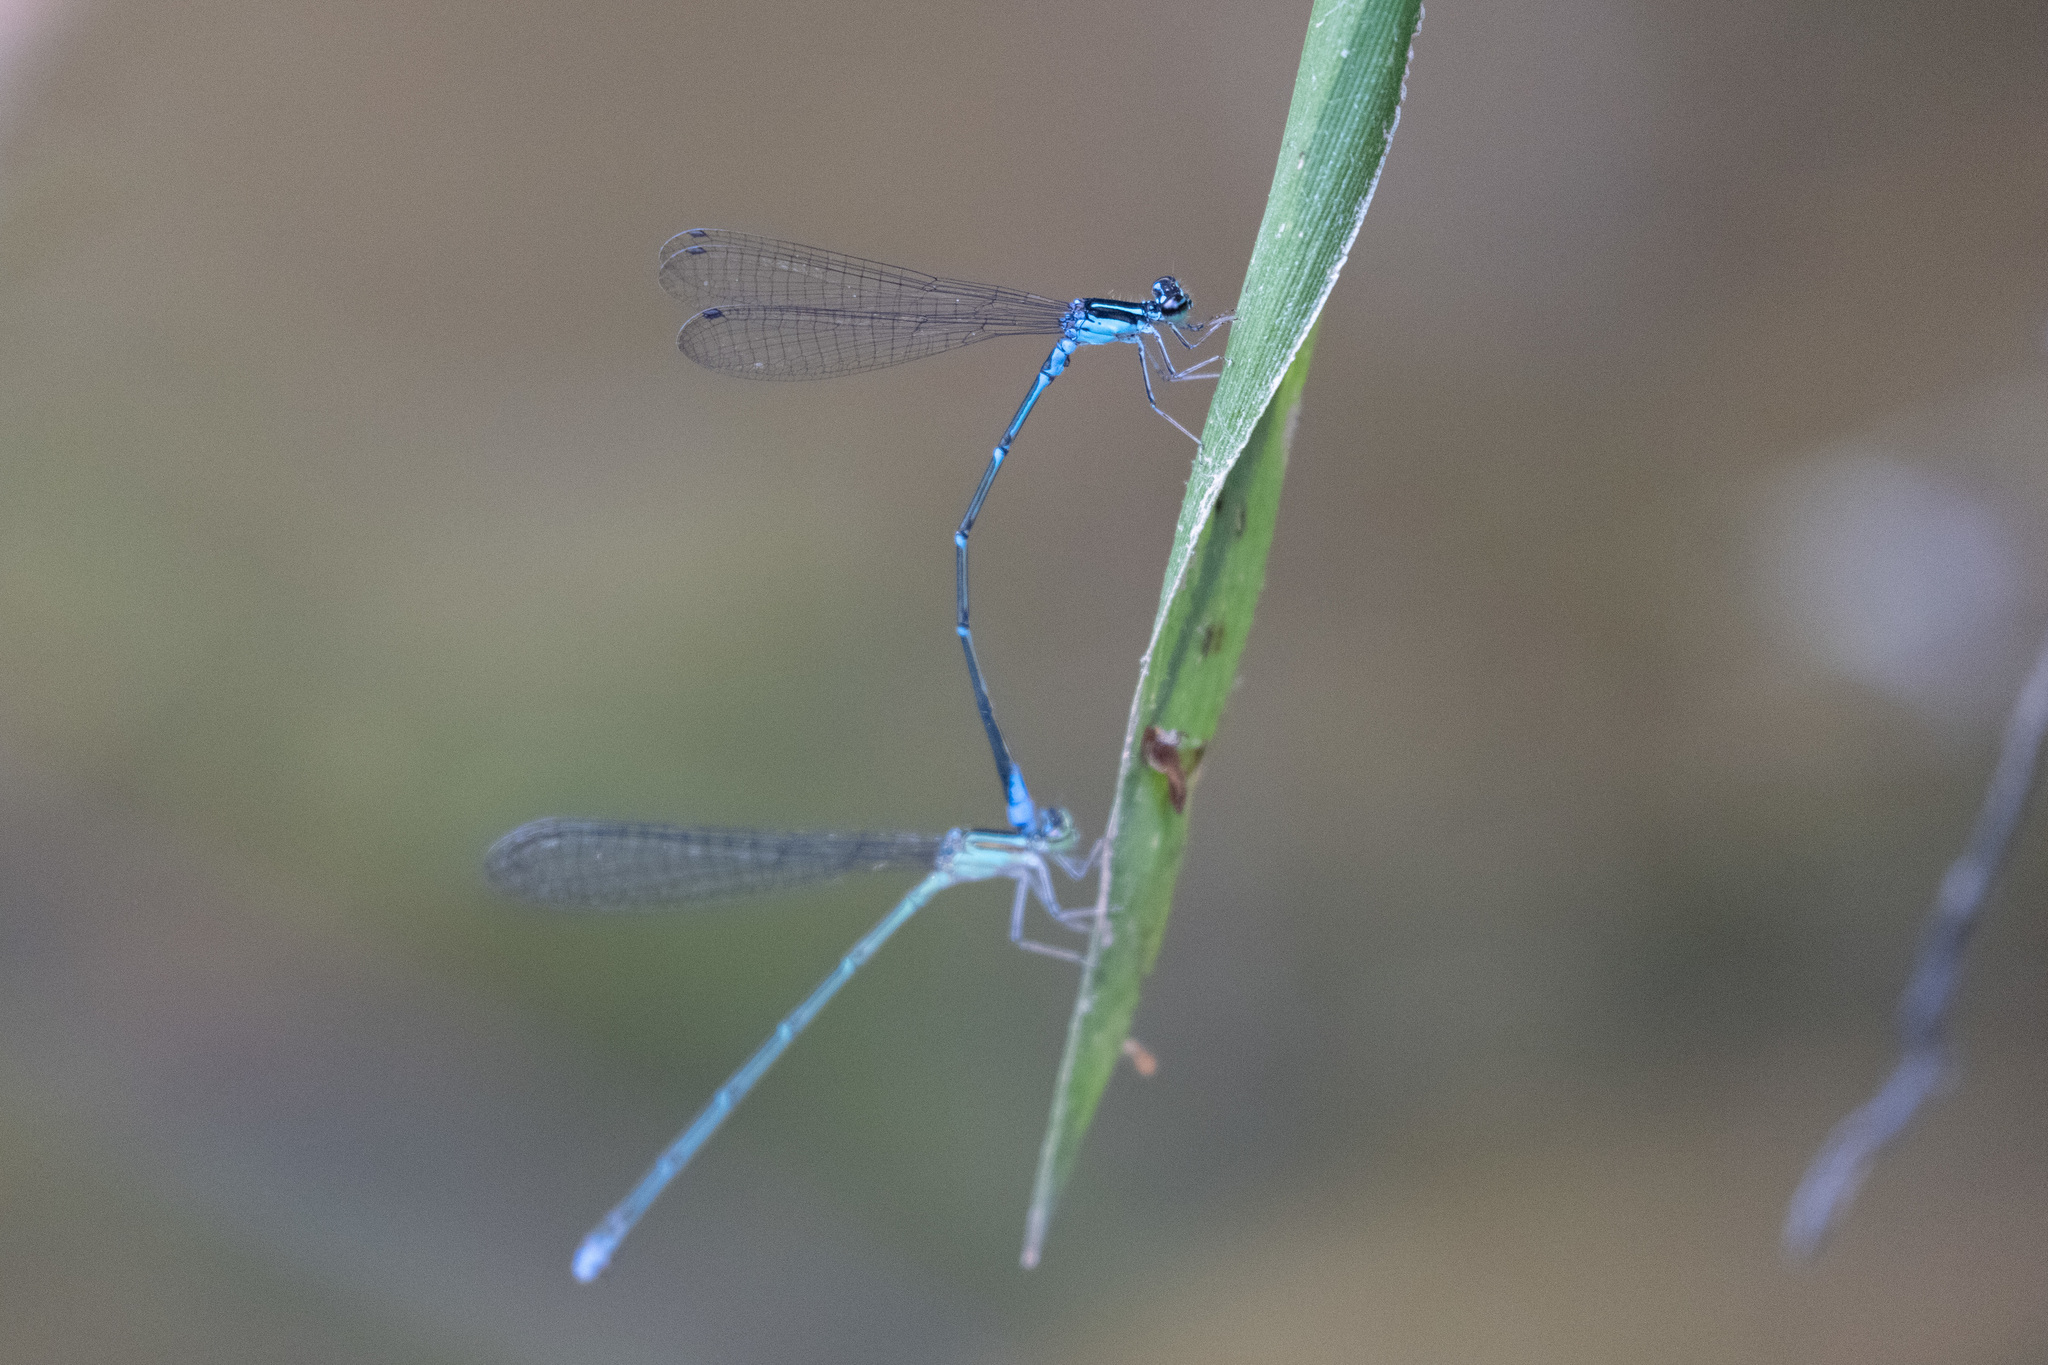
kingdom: Animalia
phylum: Arthropoda
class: Insecta
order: Odonata
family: Coenagrionidae
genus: Enallagma
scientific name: Enallagma exsulans
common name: Stream bluet
